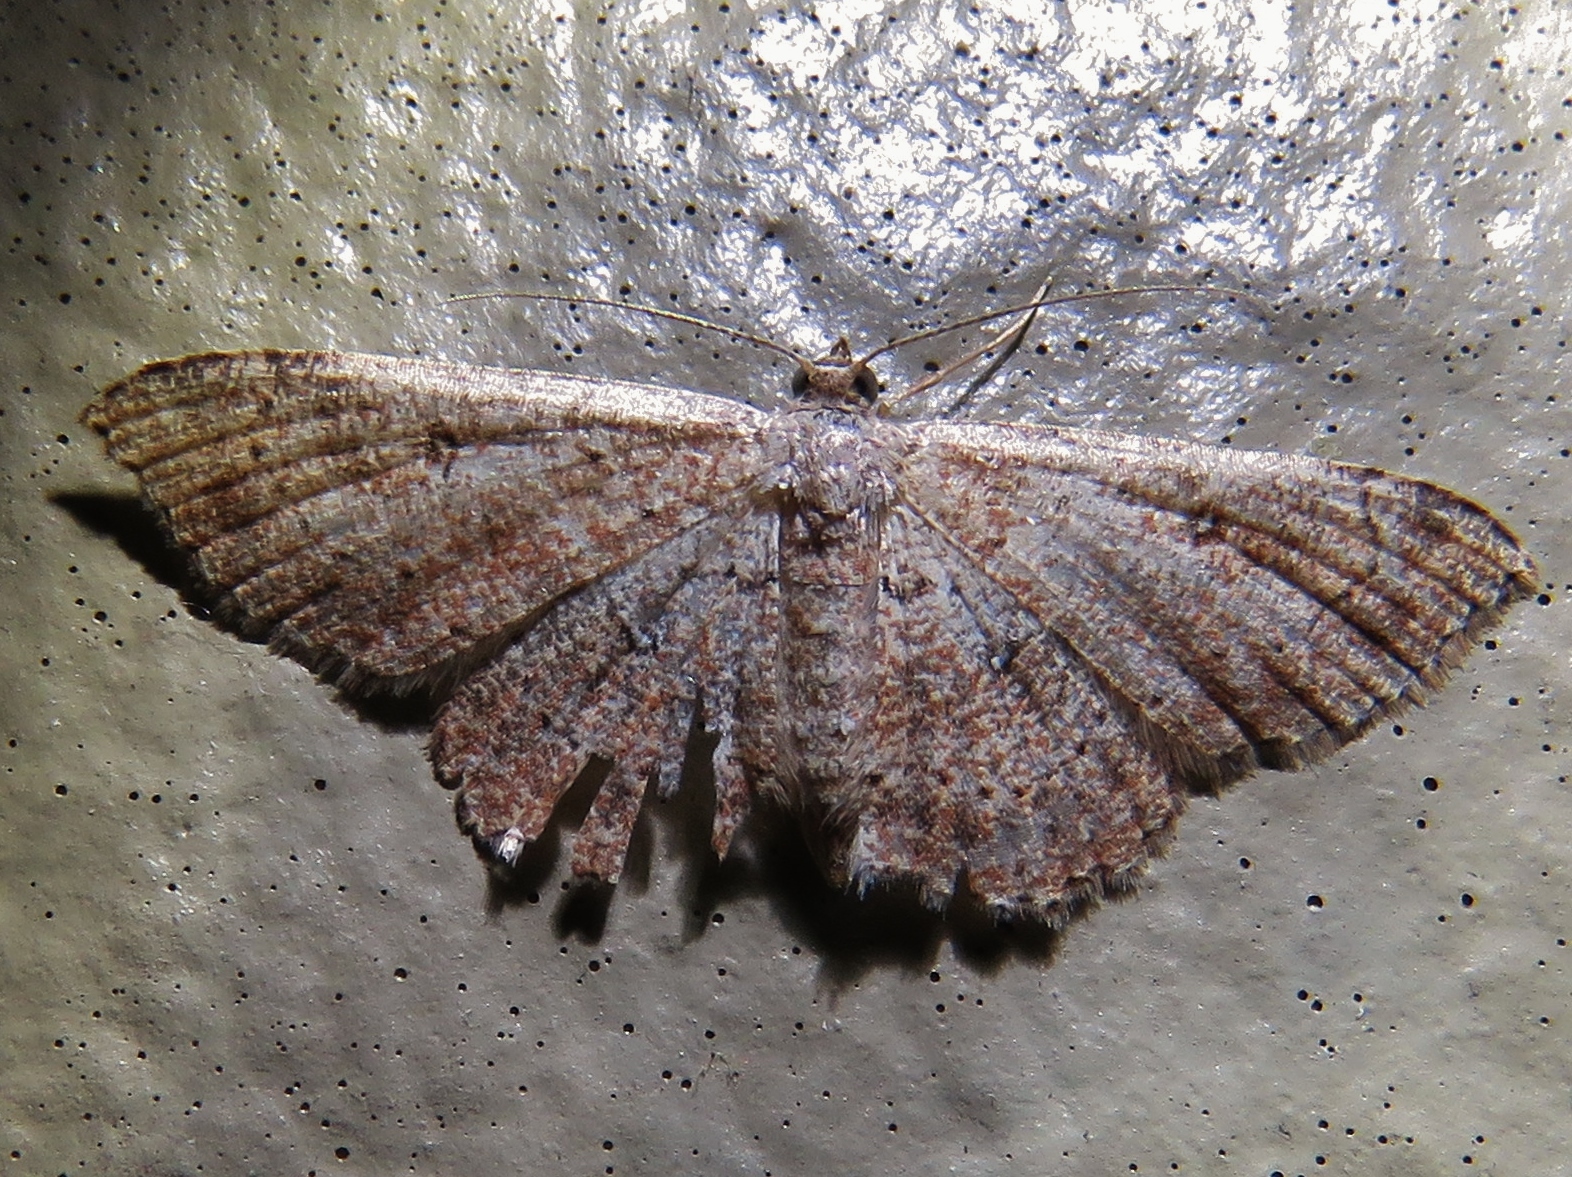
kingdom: Animalia
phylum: Arthropoda
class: Insecta
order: Lepidoptera
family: Geometridae
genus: Cyclophora
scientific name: Cyclophora nanaria
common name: Cankerworm
